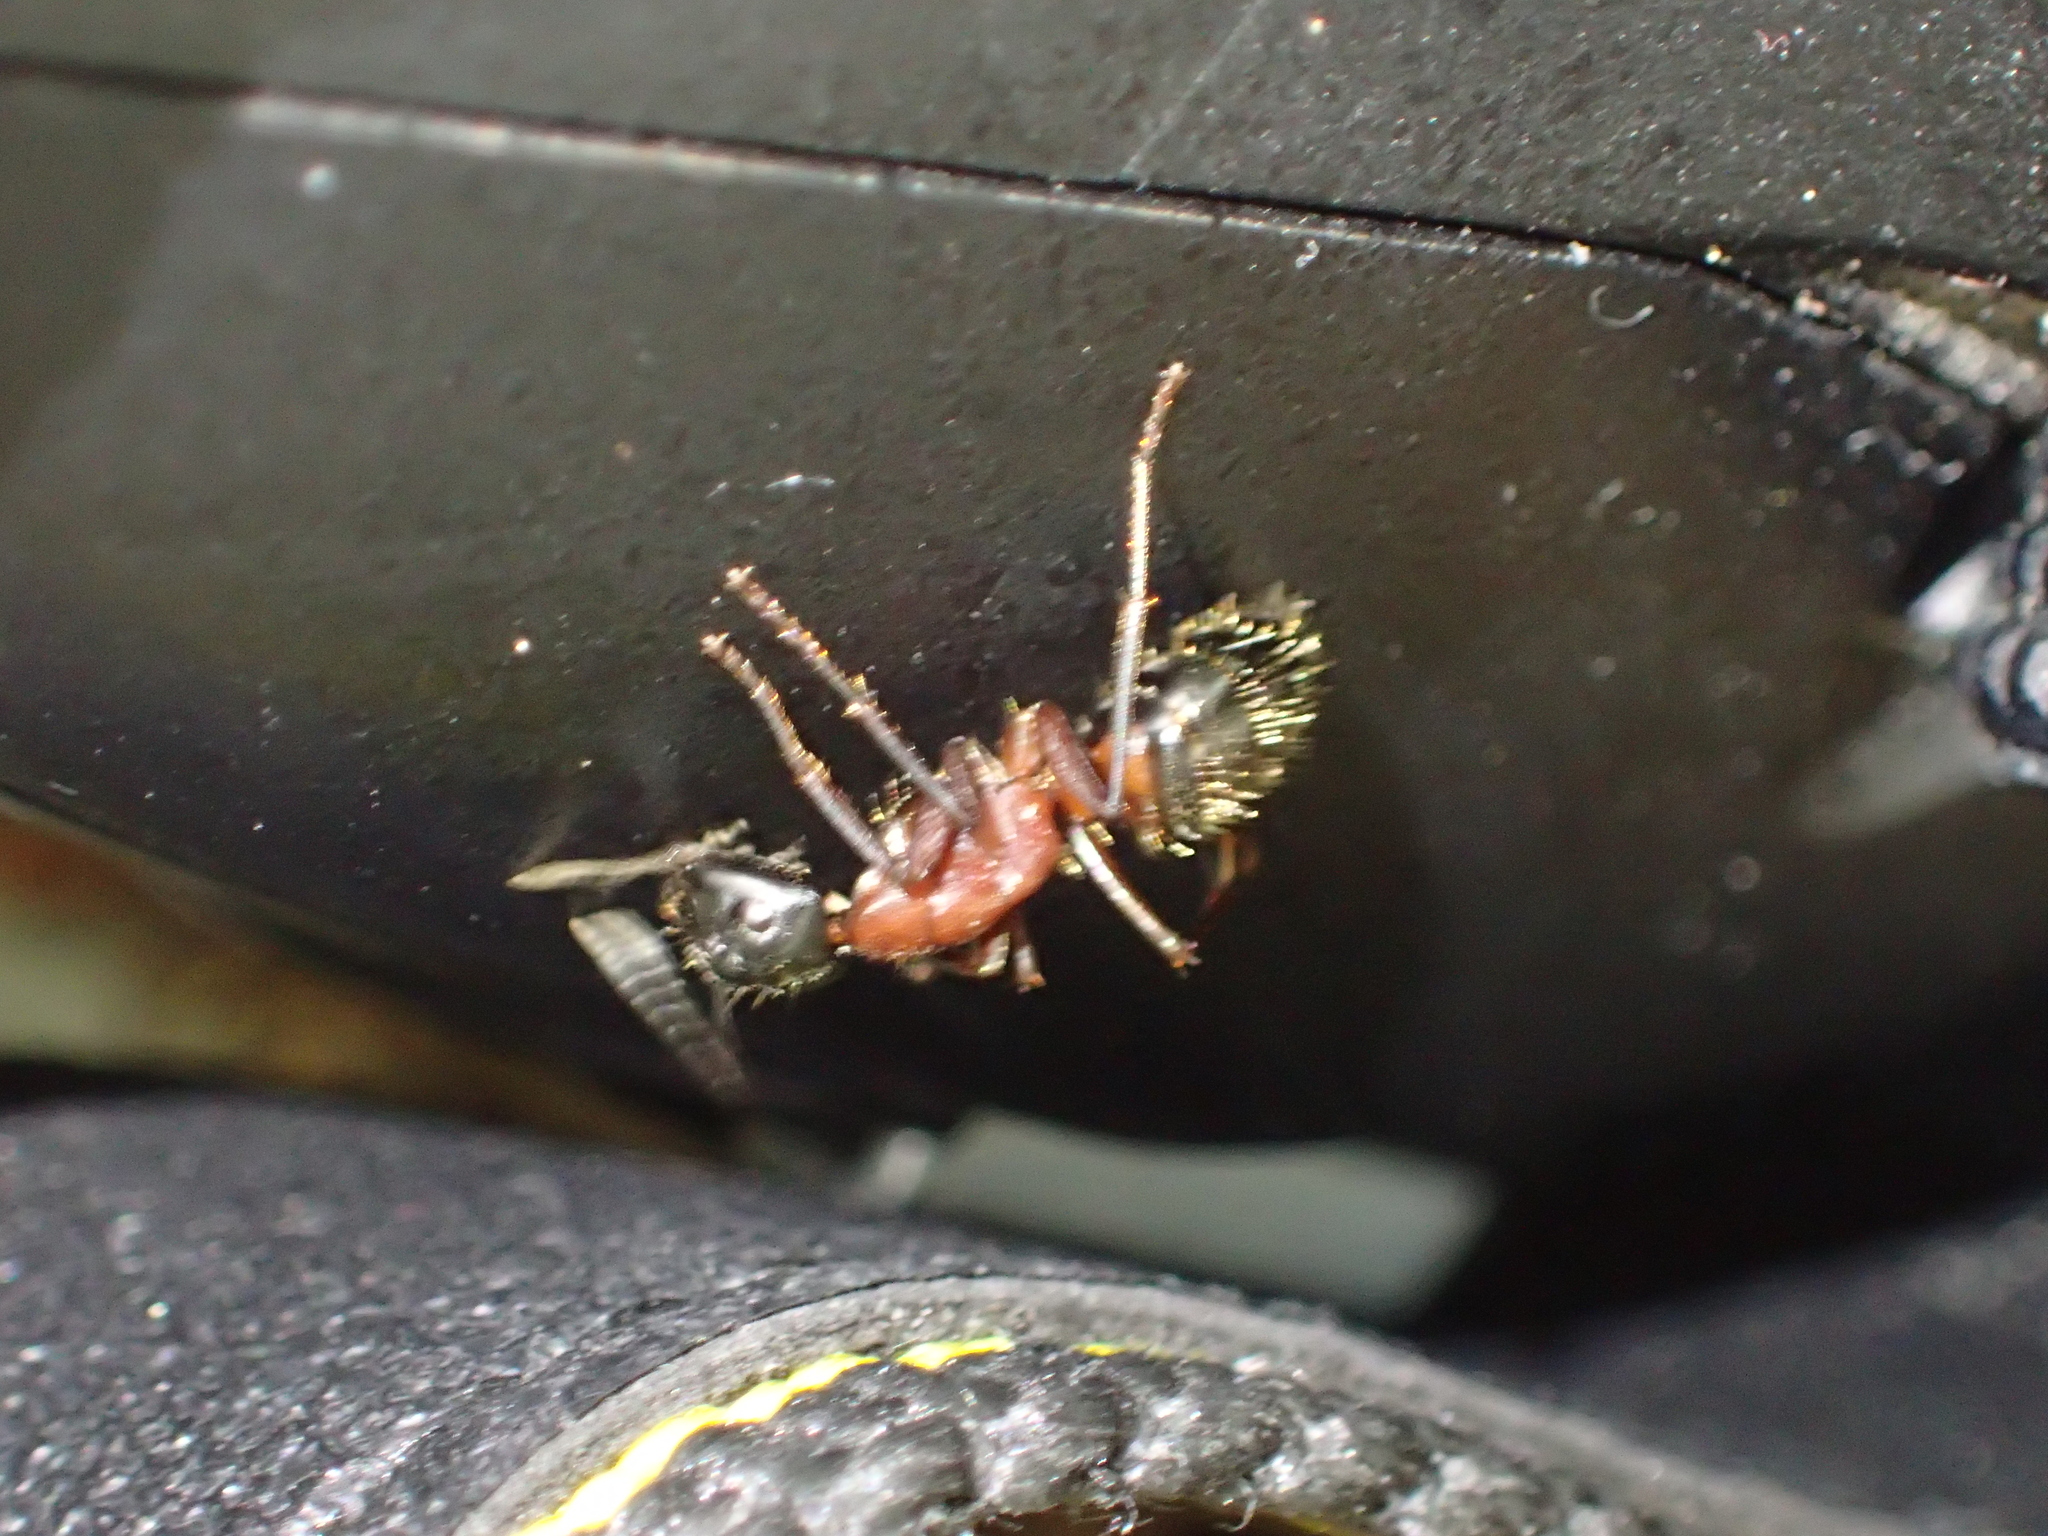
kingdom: Animalia
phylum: Arthropoda
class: Insecta
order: Hymenoptera
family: Formicidae
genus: Camponotus
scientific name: Camponotus ligniperdus
